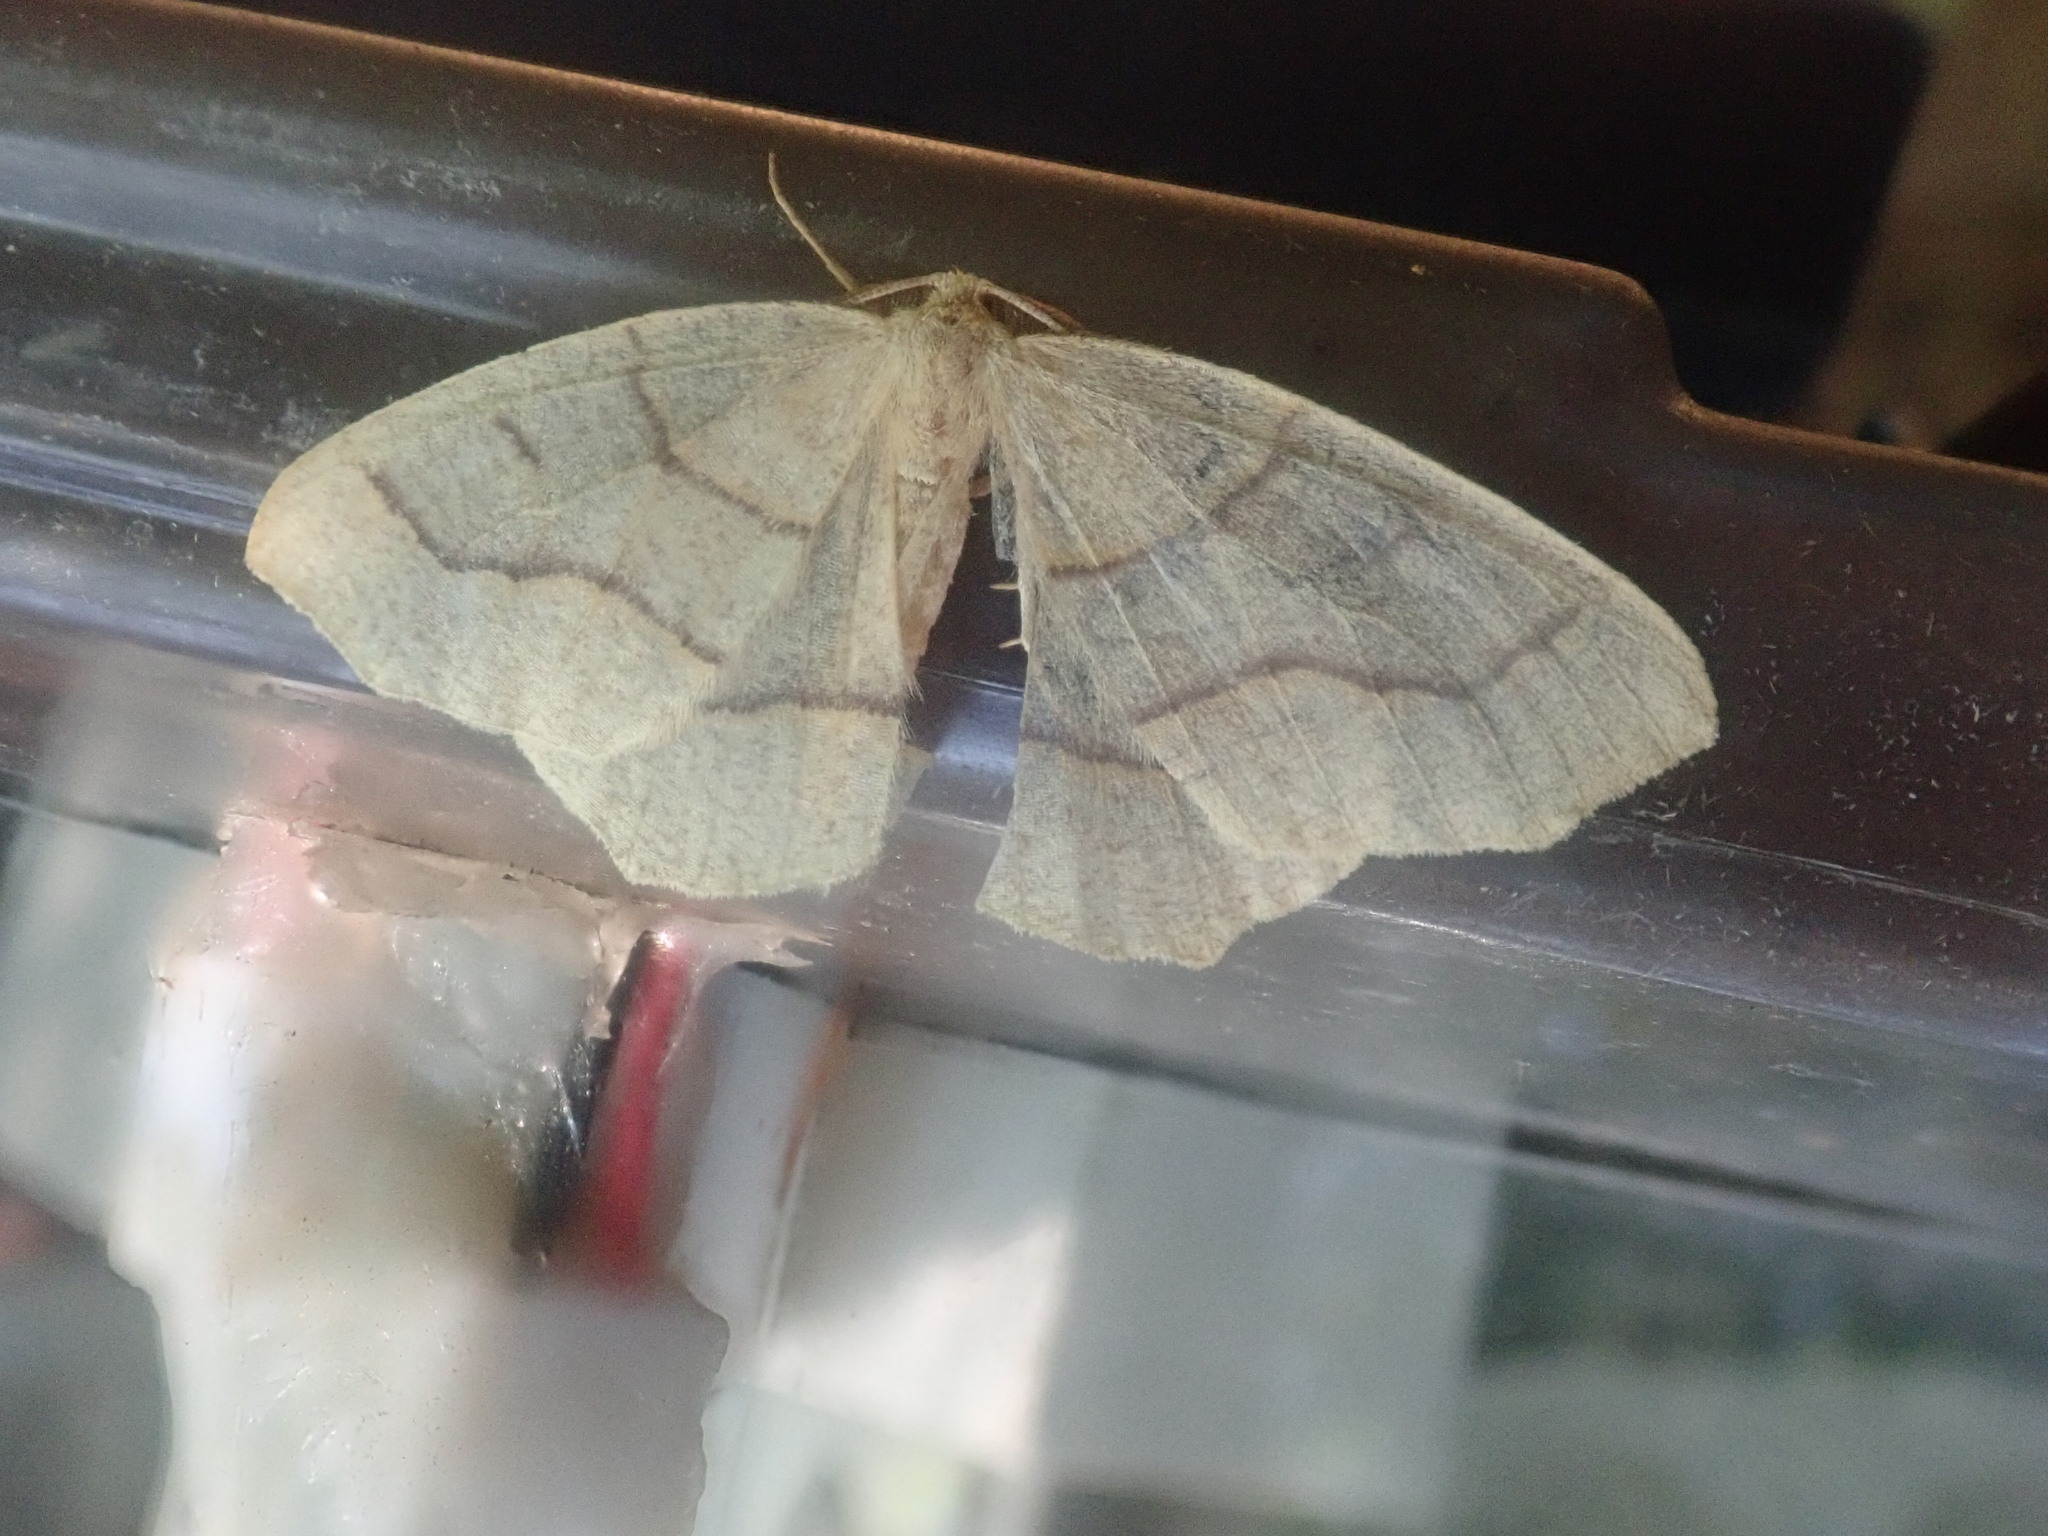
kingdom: Animalia
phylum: Arthropoda
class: Insecta
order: Lepidoptera
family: Geometridae
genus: Lambdina
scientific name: Lambdina fiscellaria
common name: Hemlock looper
